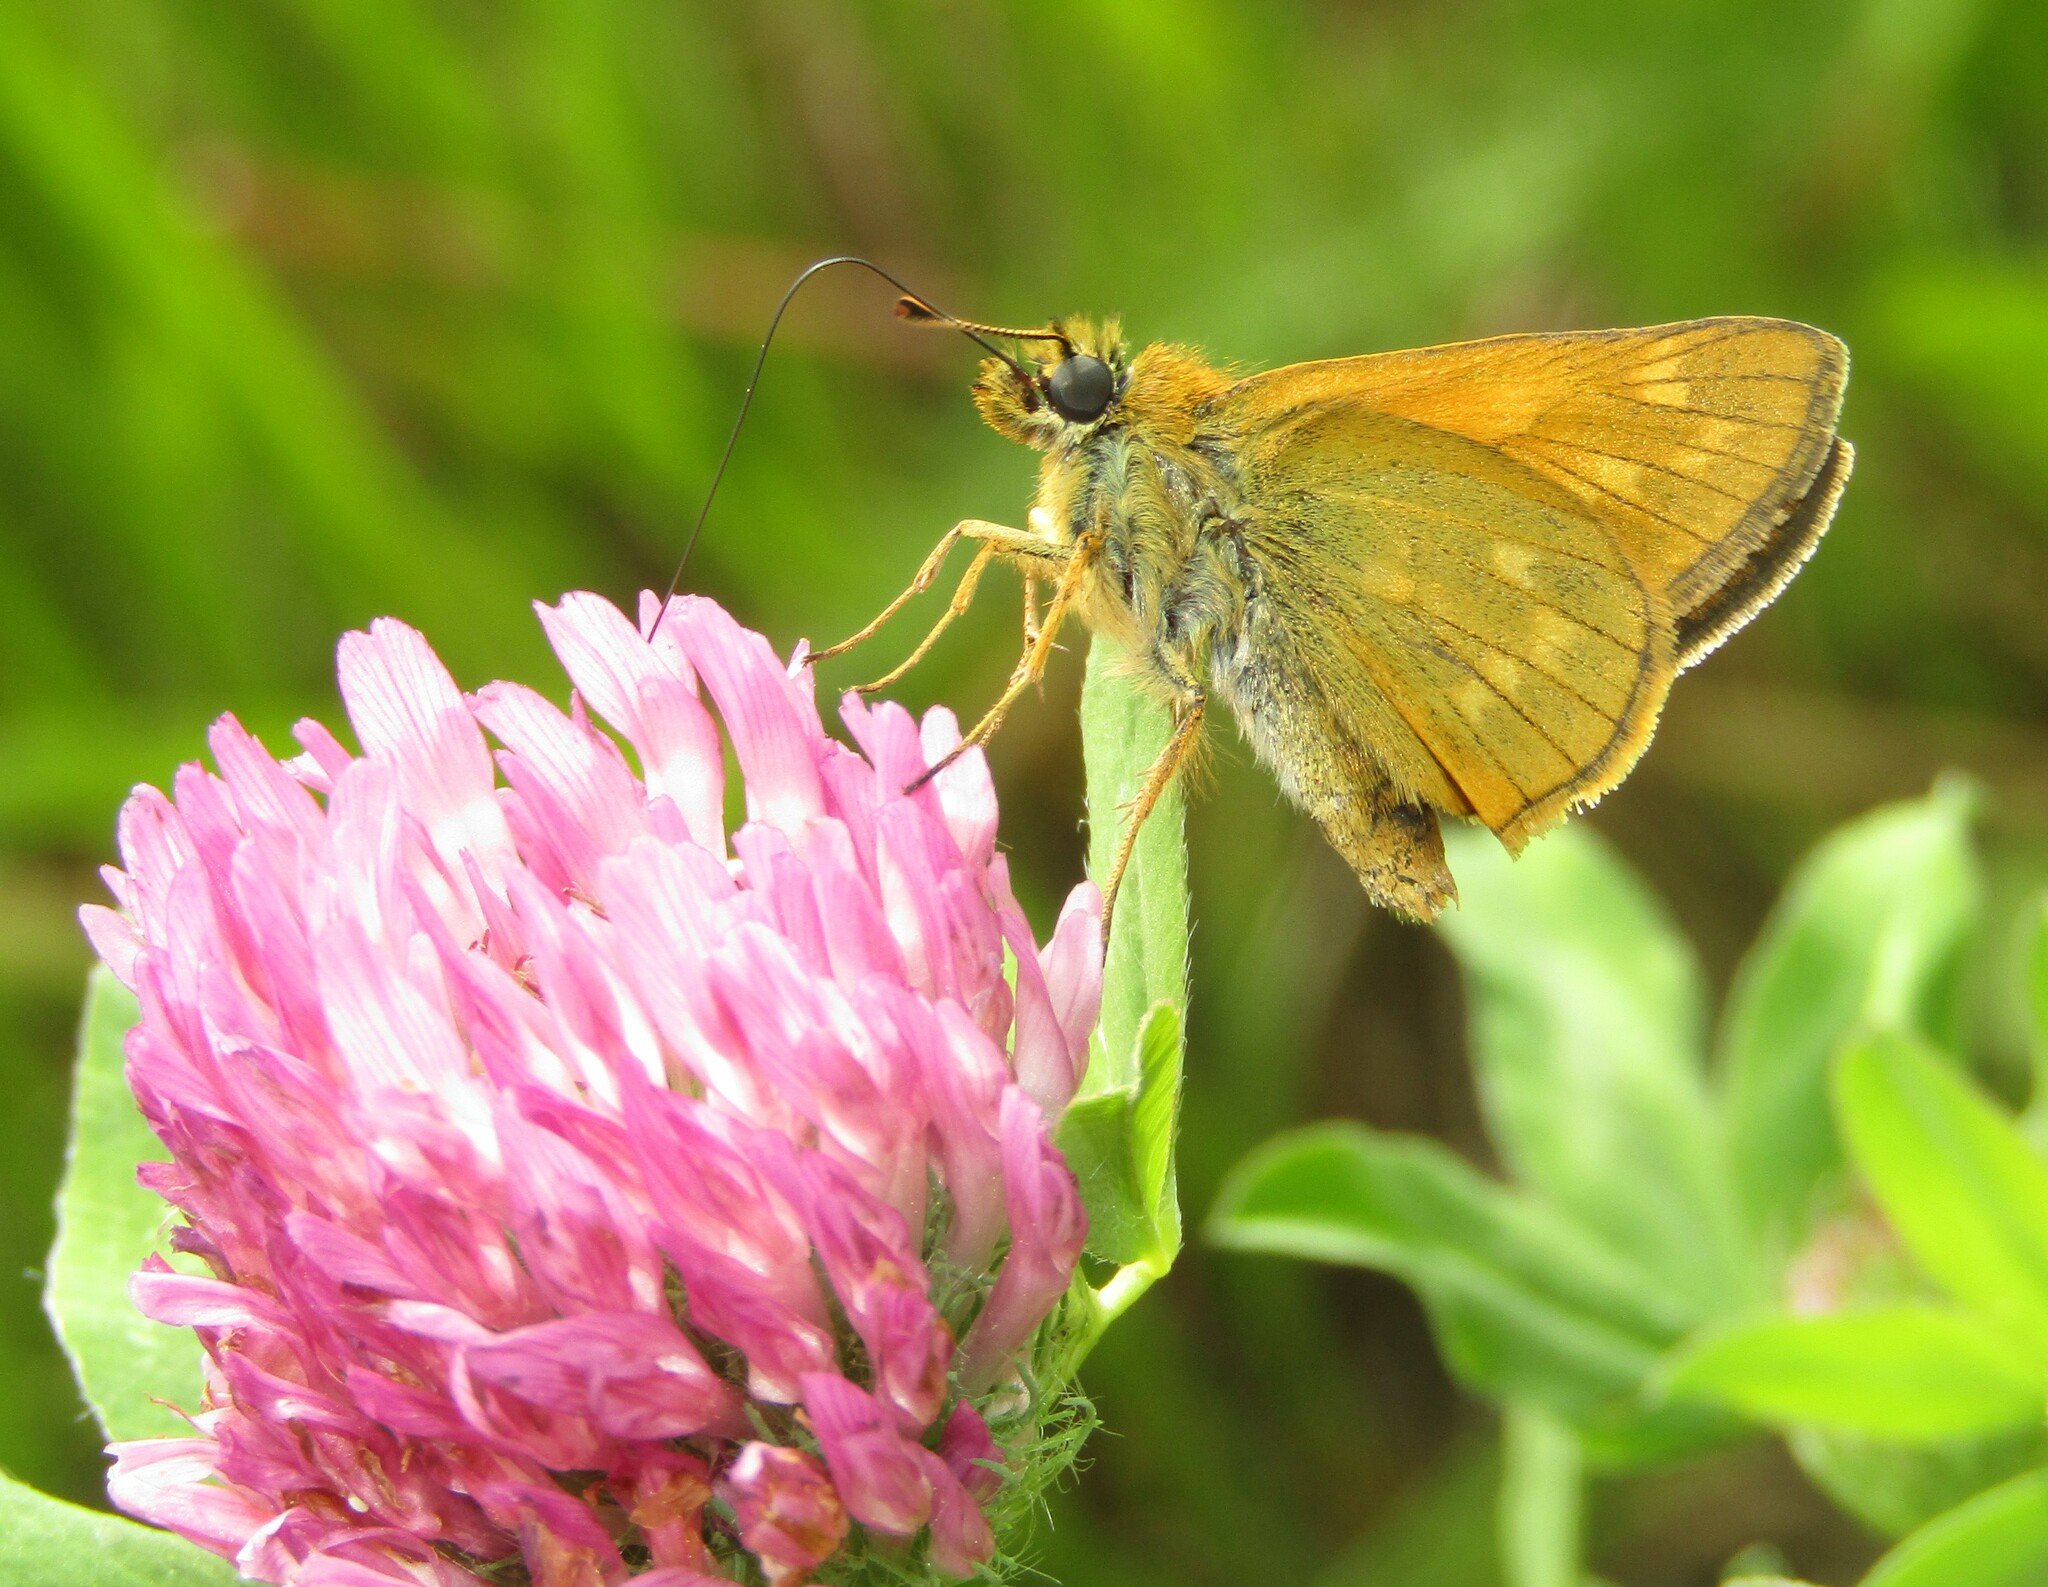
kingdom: Animalia
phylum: Arthropoda
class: Insecta
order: Lepidoptera
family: Hesperiidae
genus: Ochlodes
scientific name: Ochlodes venata
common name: Large skipper
